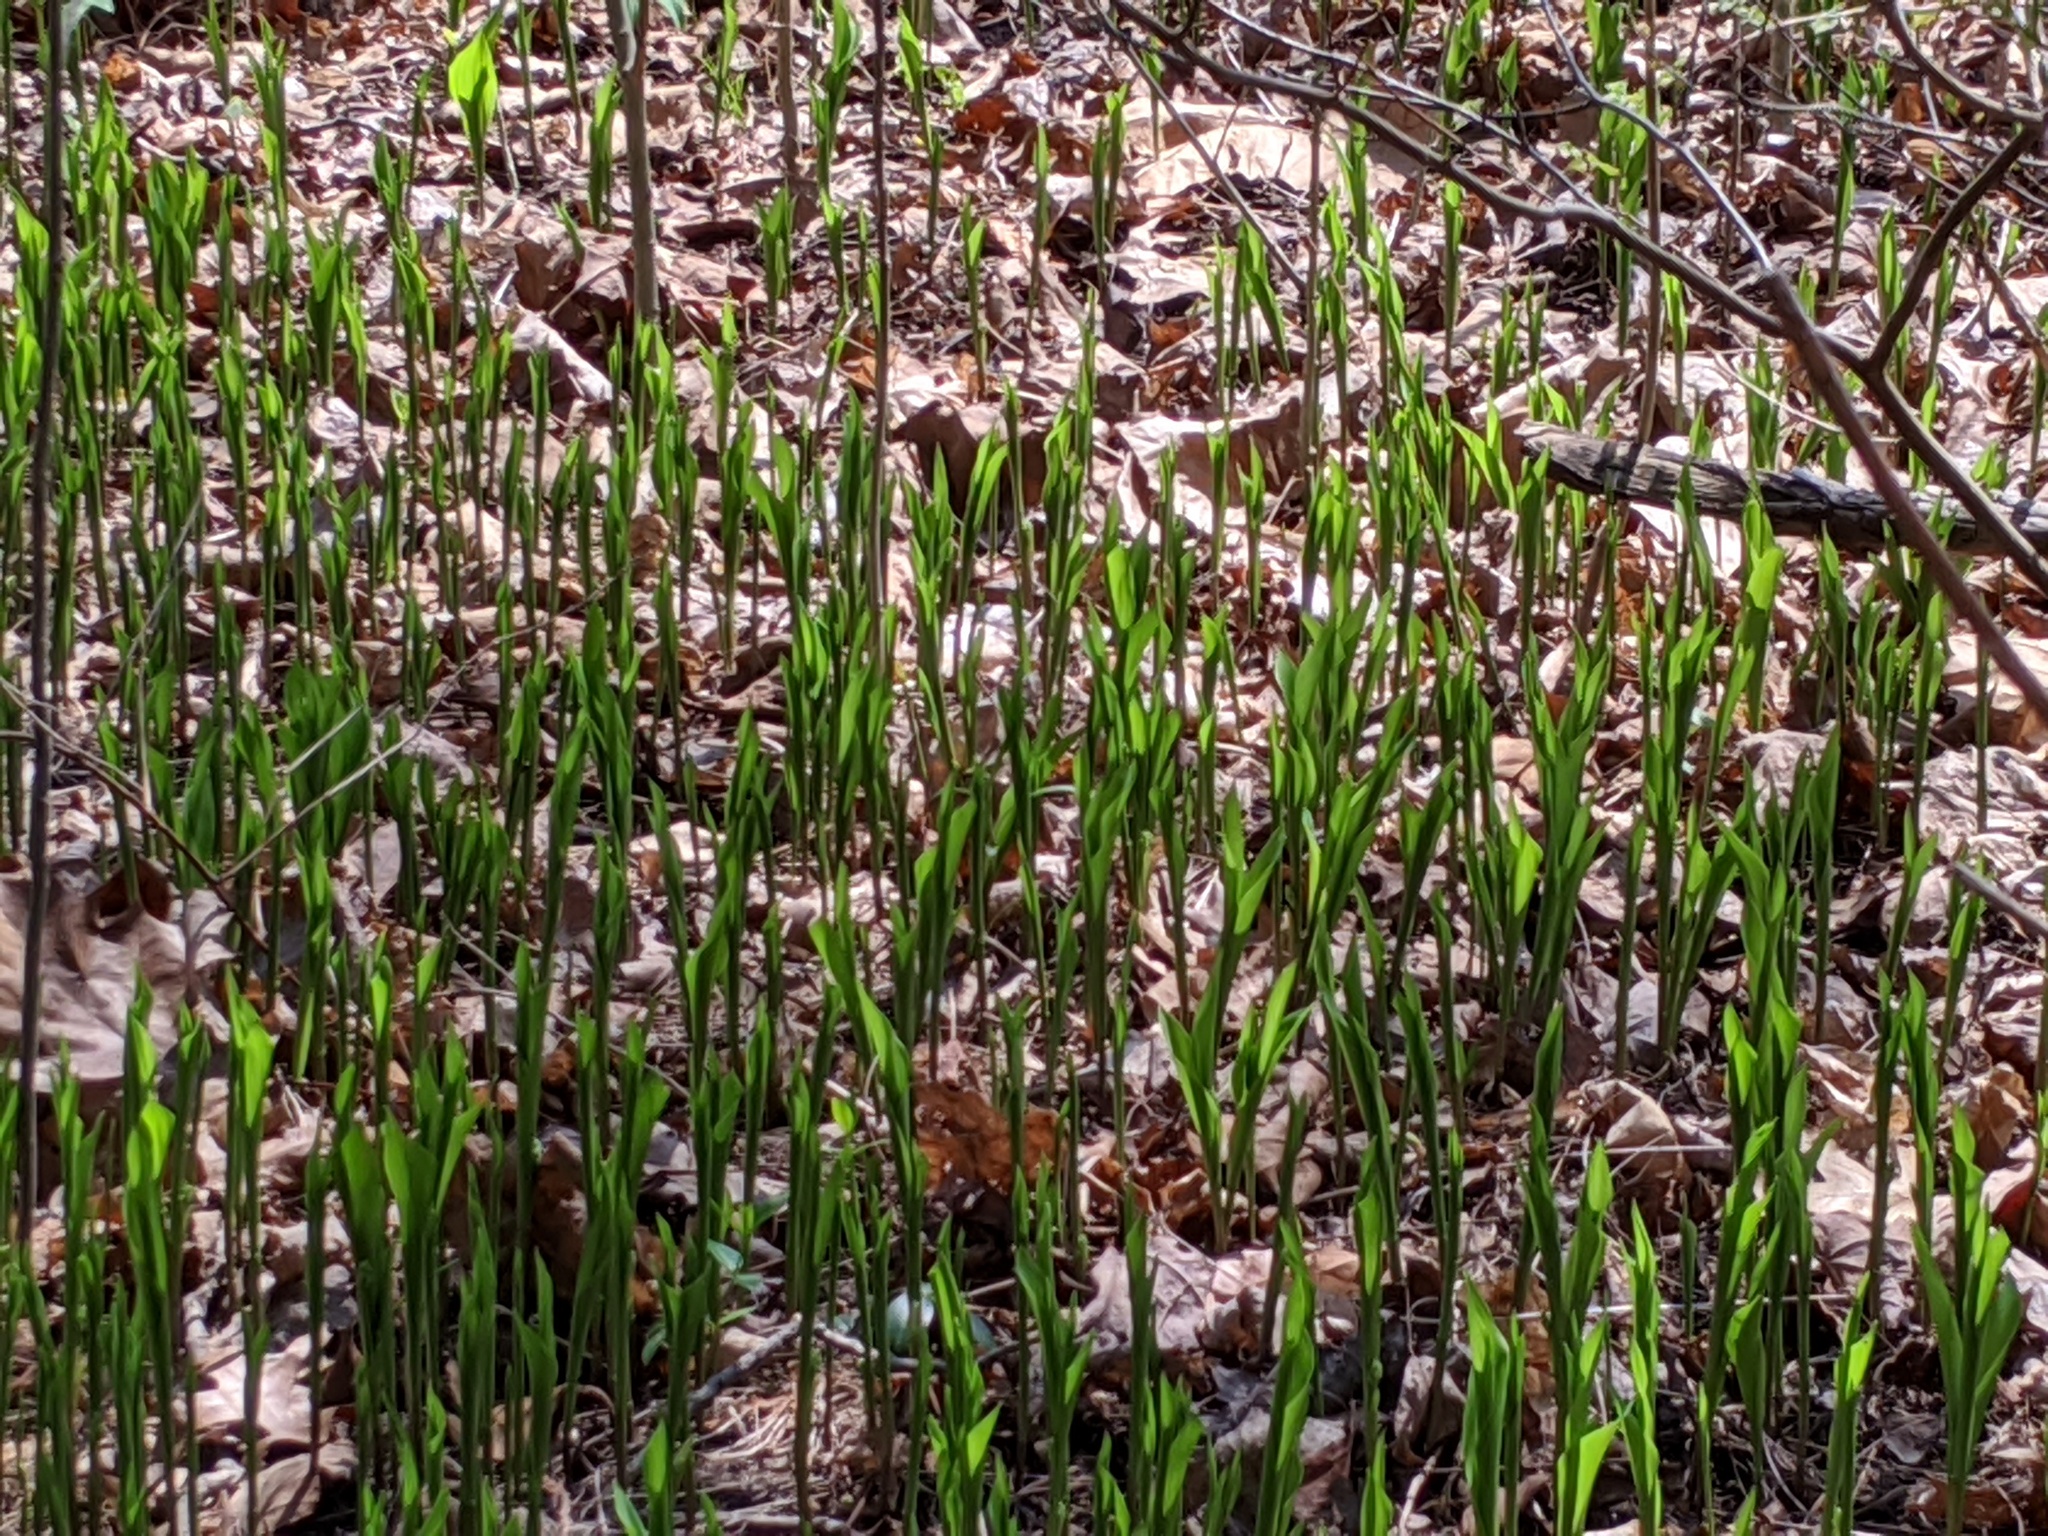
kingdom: Plantae
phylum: Tracheophyta
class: Liliopsida
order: Asparagales
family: Asparagaceae
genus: Convallaria
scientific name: Convallaria majalis
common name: Lily-of-the-valley
